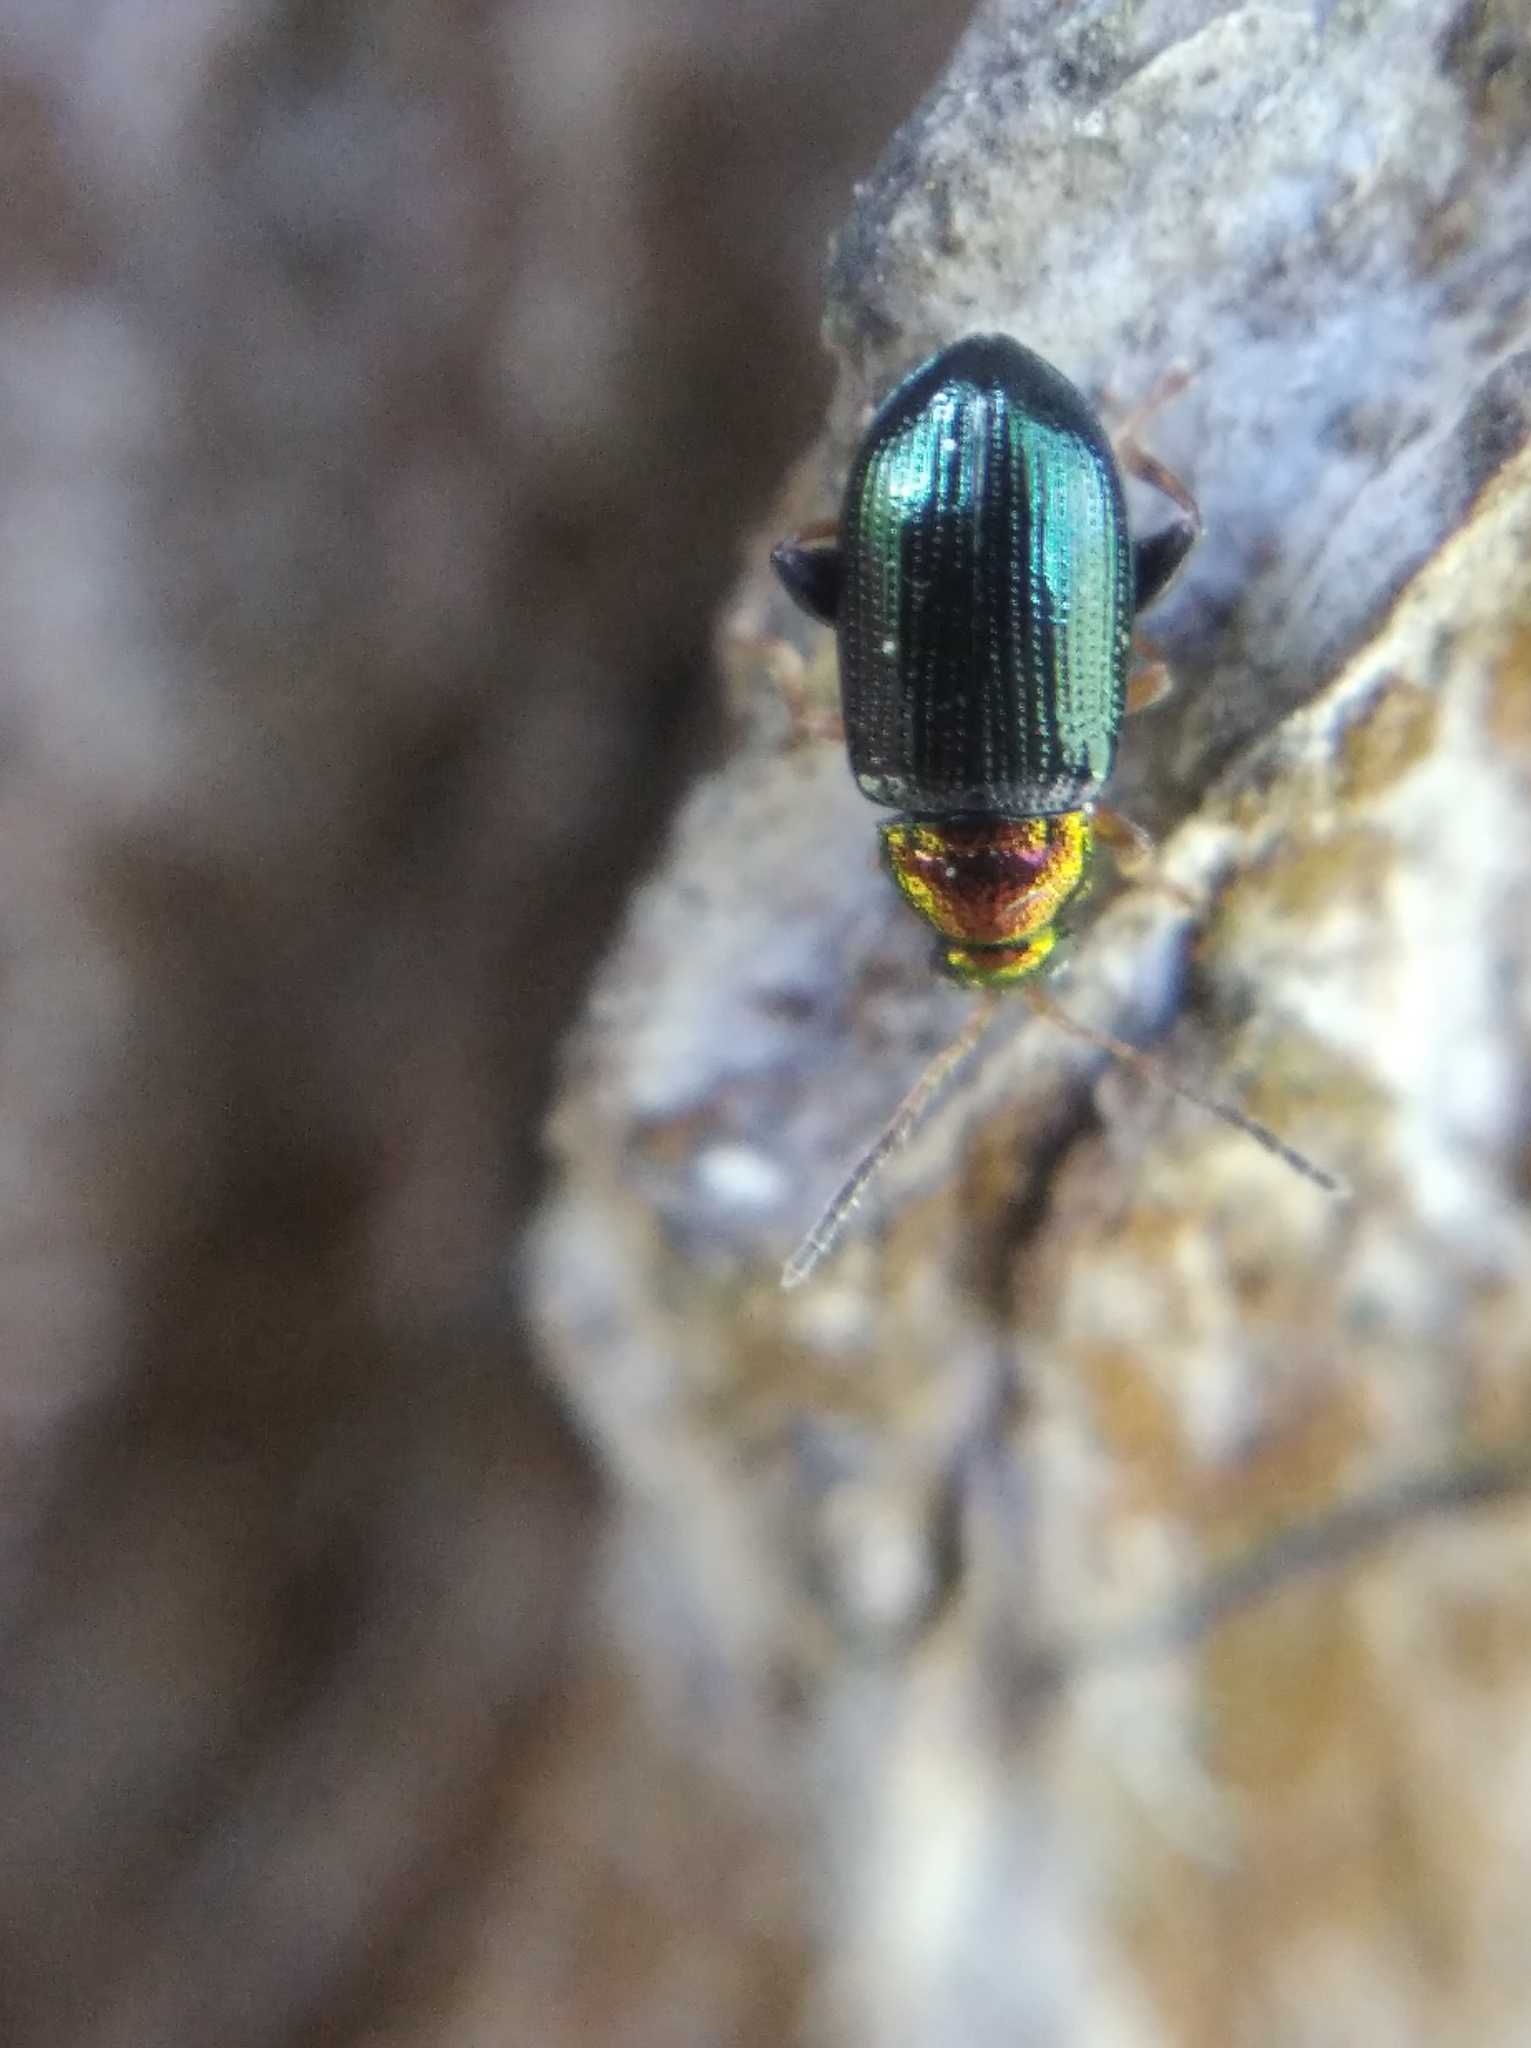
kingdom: Animalia
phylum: Arthropoda
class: Insecta
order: Coleoptera
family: Chrysomelidae
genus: Crepidodera
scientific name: Crepidodera aurata
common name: Willow flea beetle
